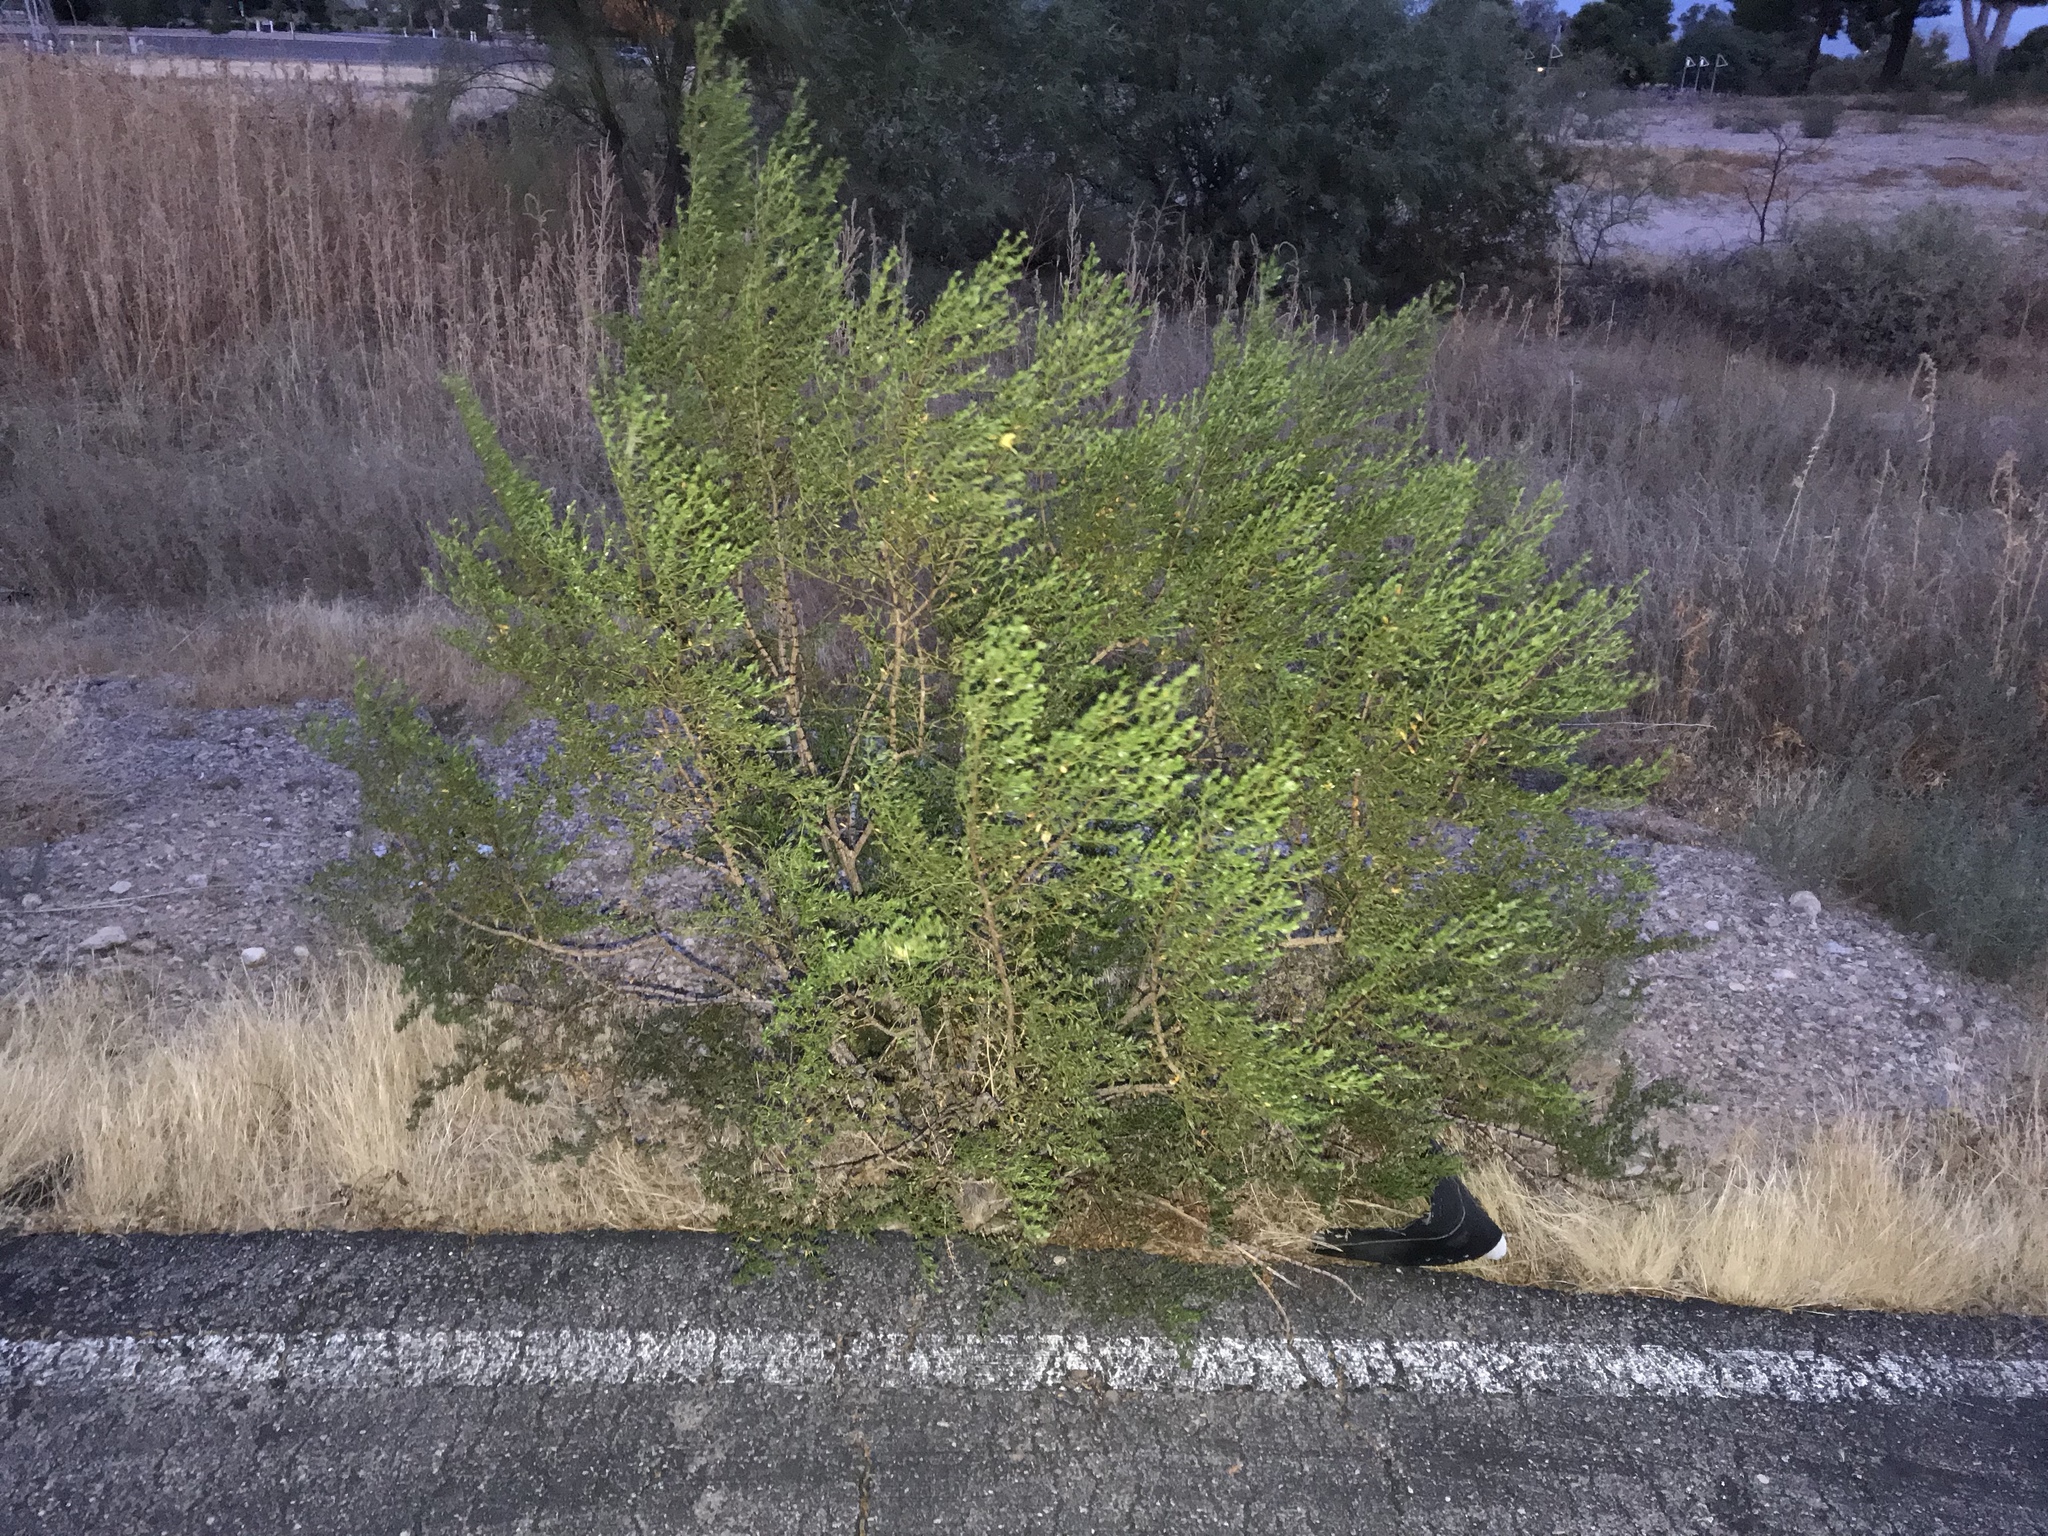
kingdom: Plantae
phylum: Tracheophyta
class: Magnoliopsida
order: Zygophyllales
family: Zygophyllaceae
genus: Larrea
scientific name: Larrea tridentata
